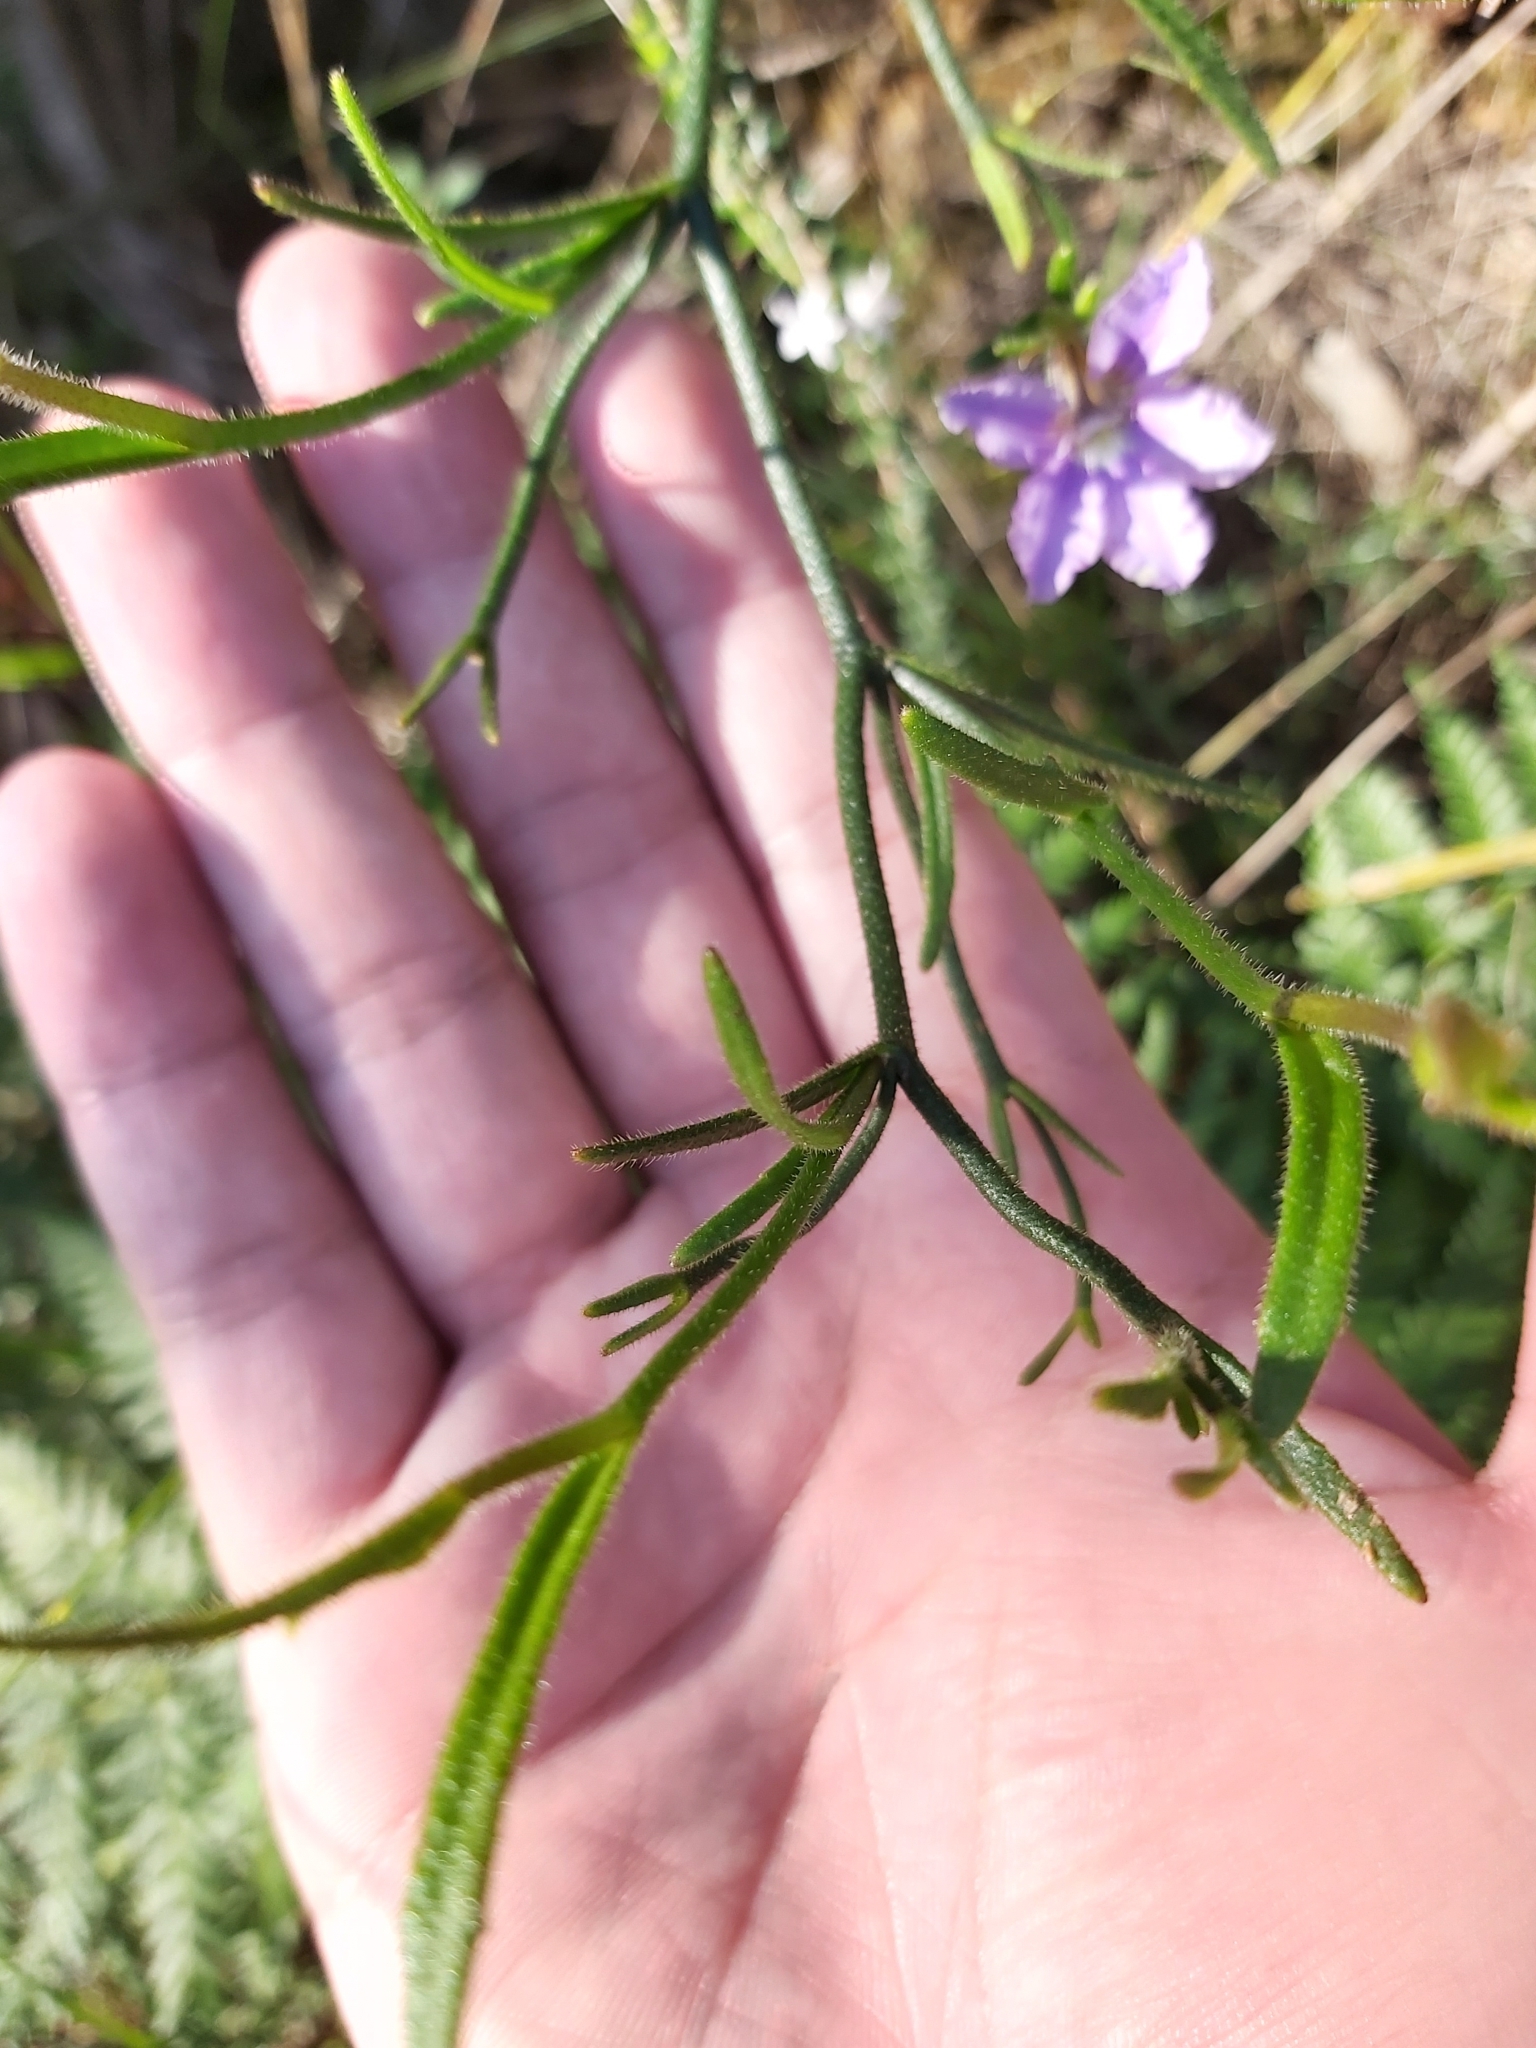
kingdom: Plantae
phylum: Tracheophyta
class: Magnoliopsida
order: Asterales
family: Goodeniaceae
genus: Scaevola
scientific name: Scaevola ramosissima
